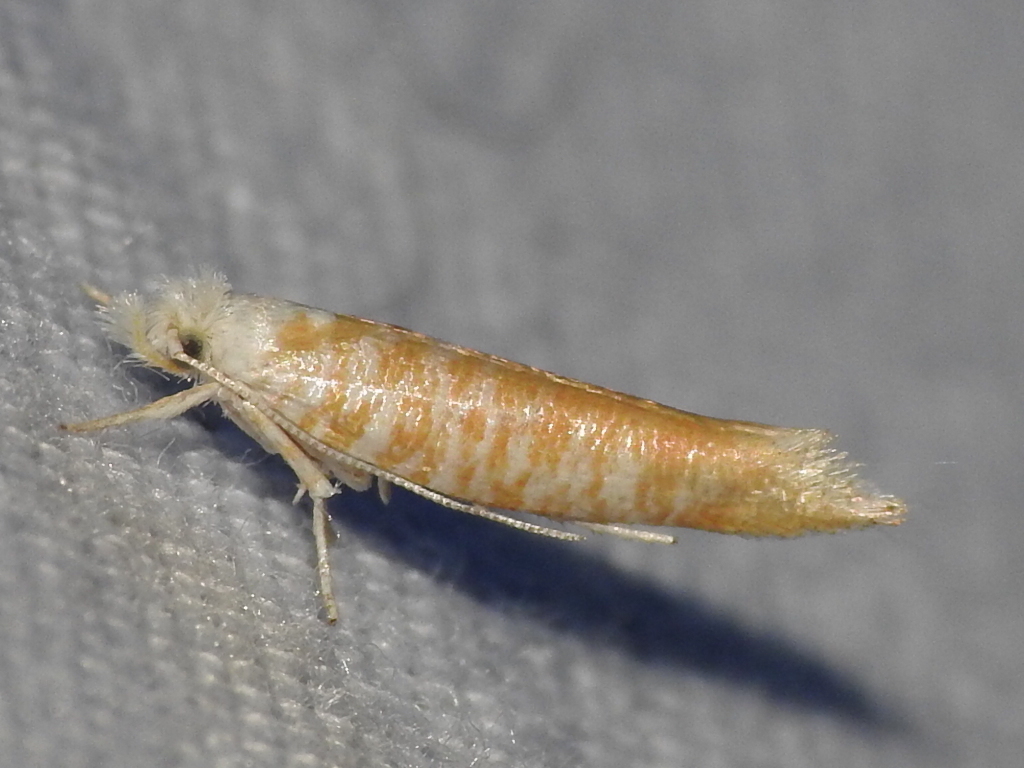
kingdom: Animalia
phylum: Arthropoda
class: Insecta
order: Lepidoptera
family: Yponomeutidae
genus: Zelleria
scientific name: Zelleria retiniella
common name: Brindled zelleria
